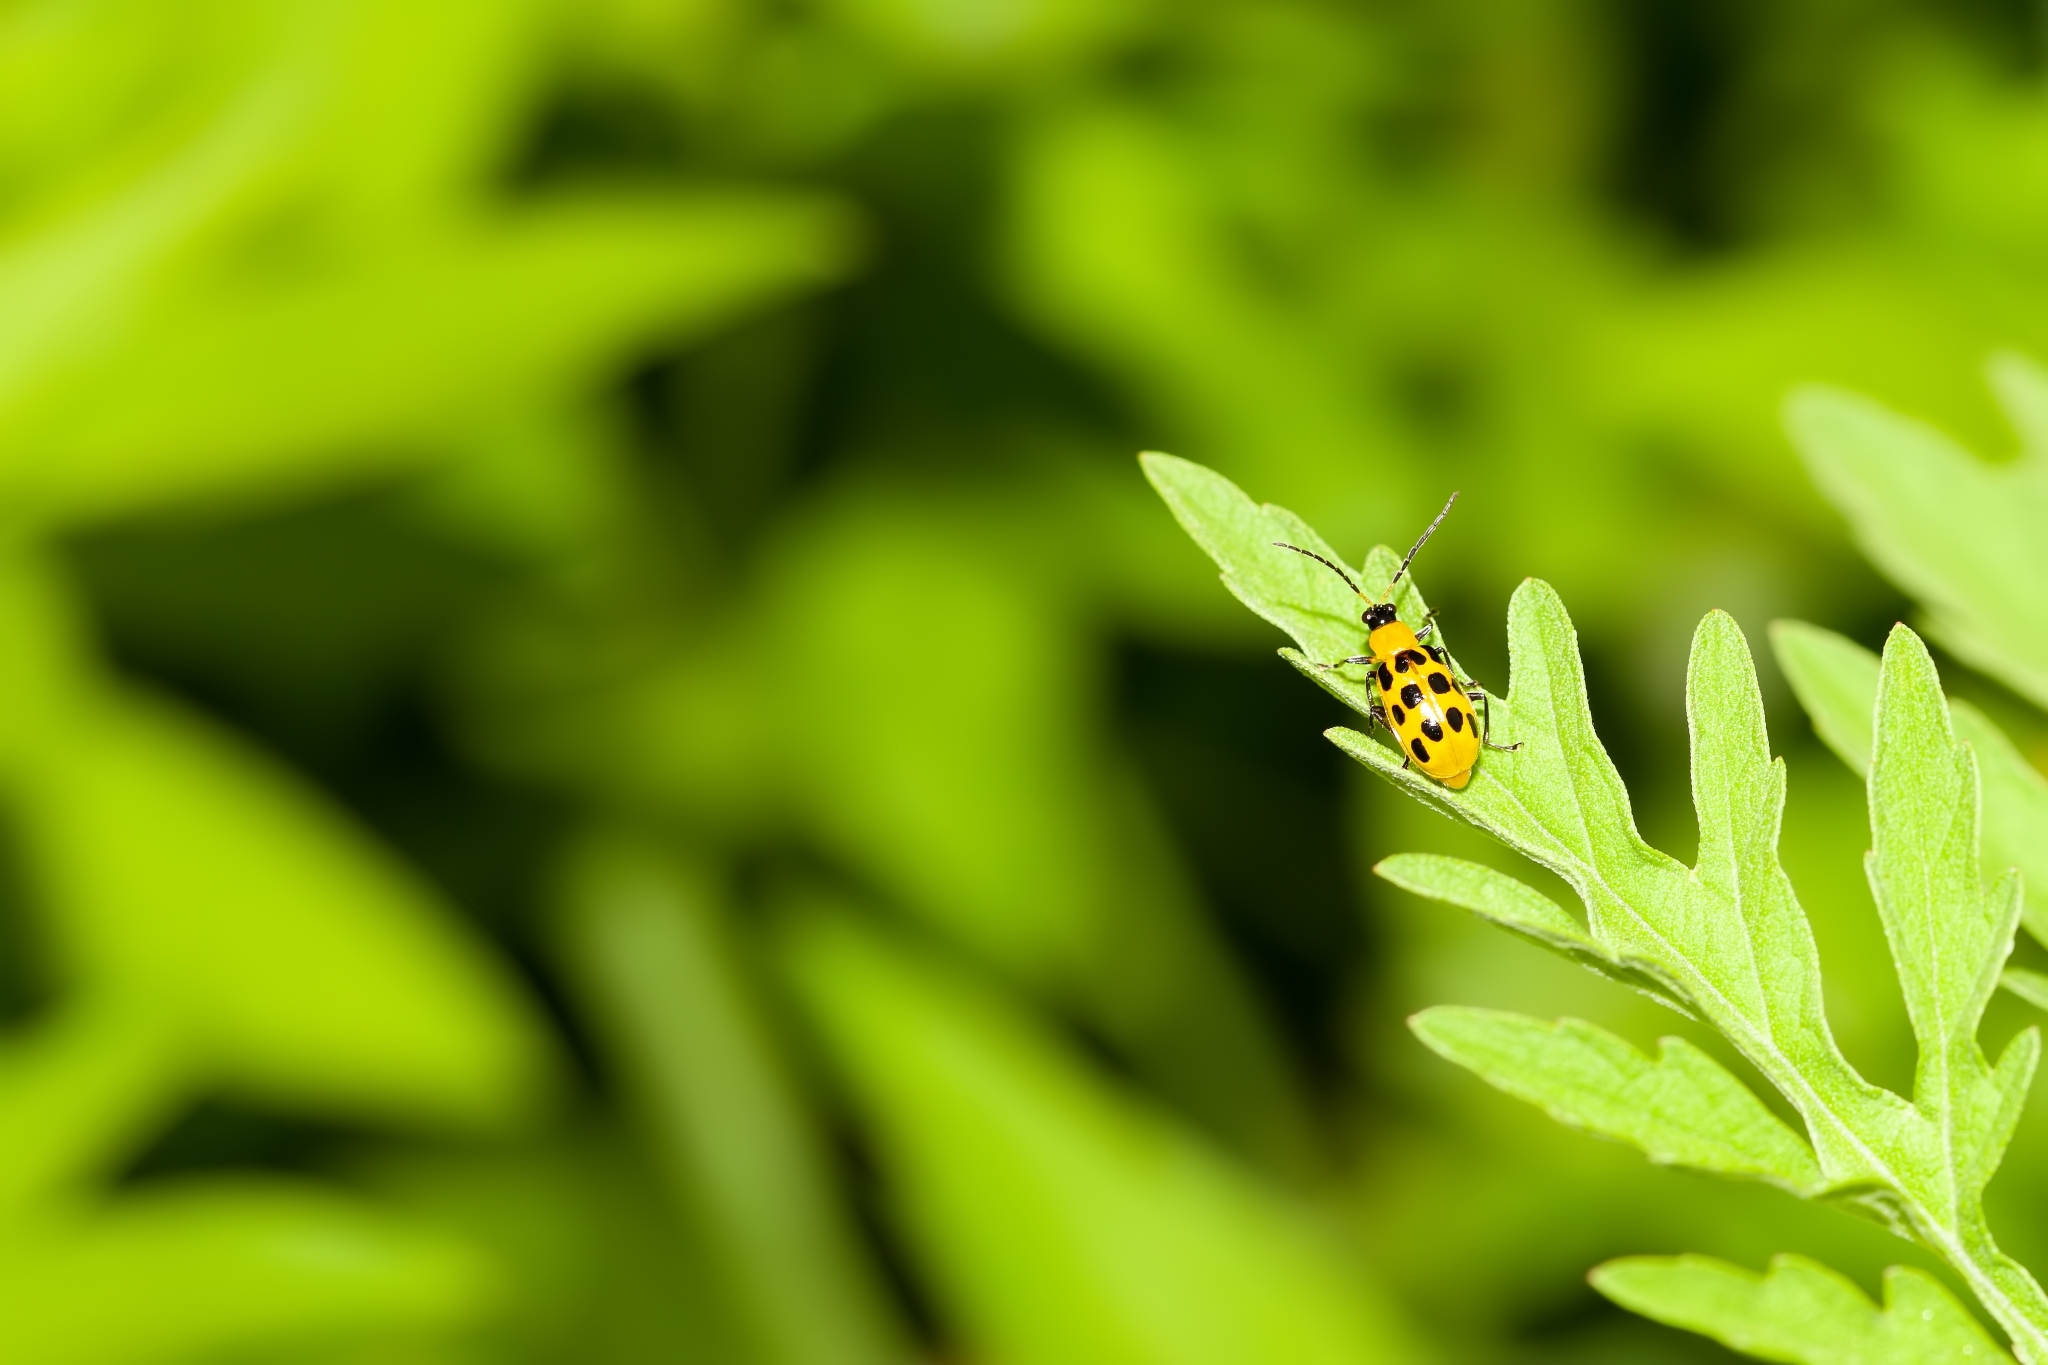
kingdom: Animalia
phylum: Arthropoda
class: Insecta
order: Coleoptera
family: Chrysomelidae
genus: Diabrotica
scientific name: Diabrotica undecimpunctata
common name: Spotted cucumber beetle
